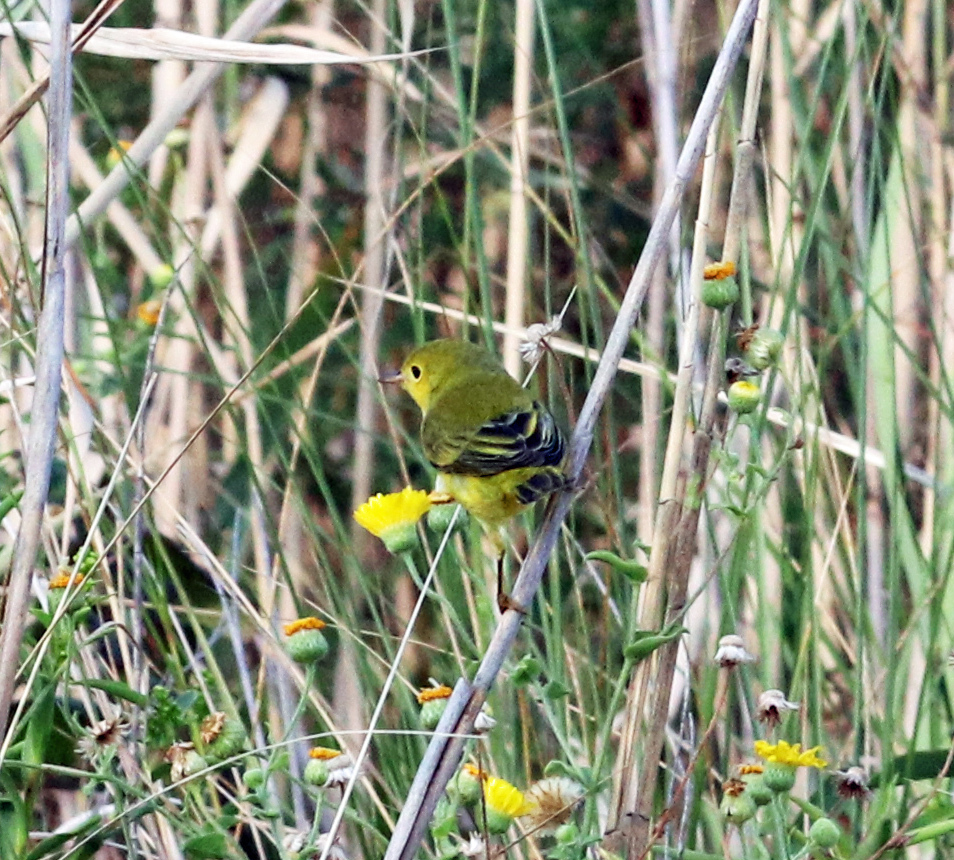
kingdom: Animalia
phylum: Chordata
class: Aves
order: Passeriformes
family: Parulidae
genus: Setophaga
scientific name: Setophaga petechia
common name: Yellow warbler
